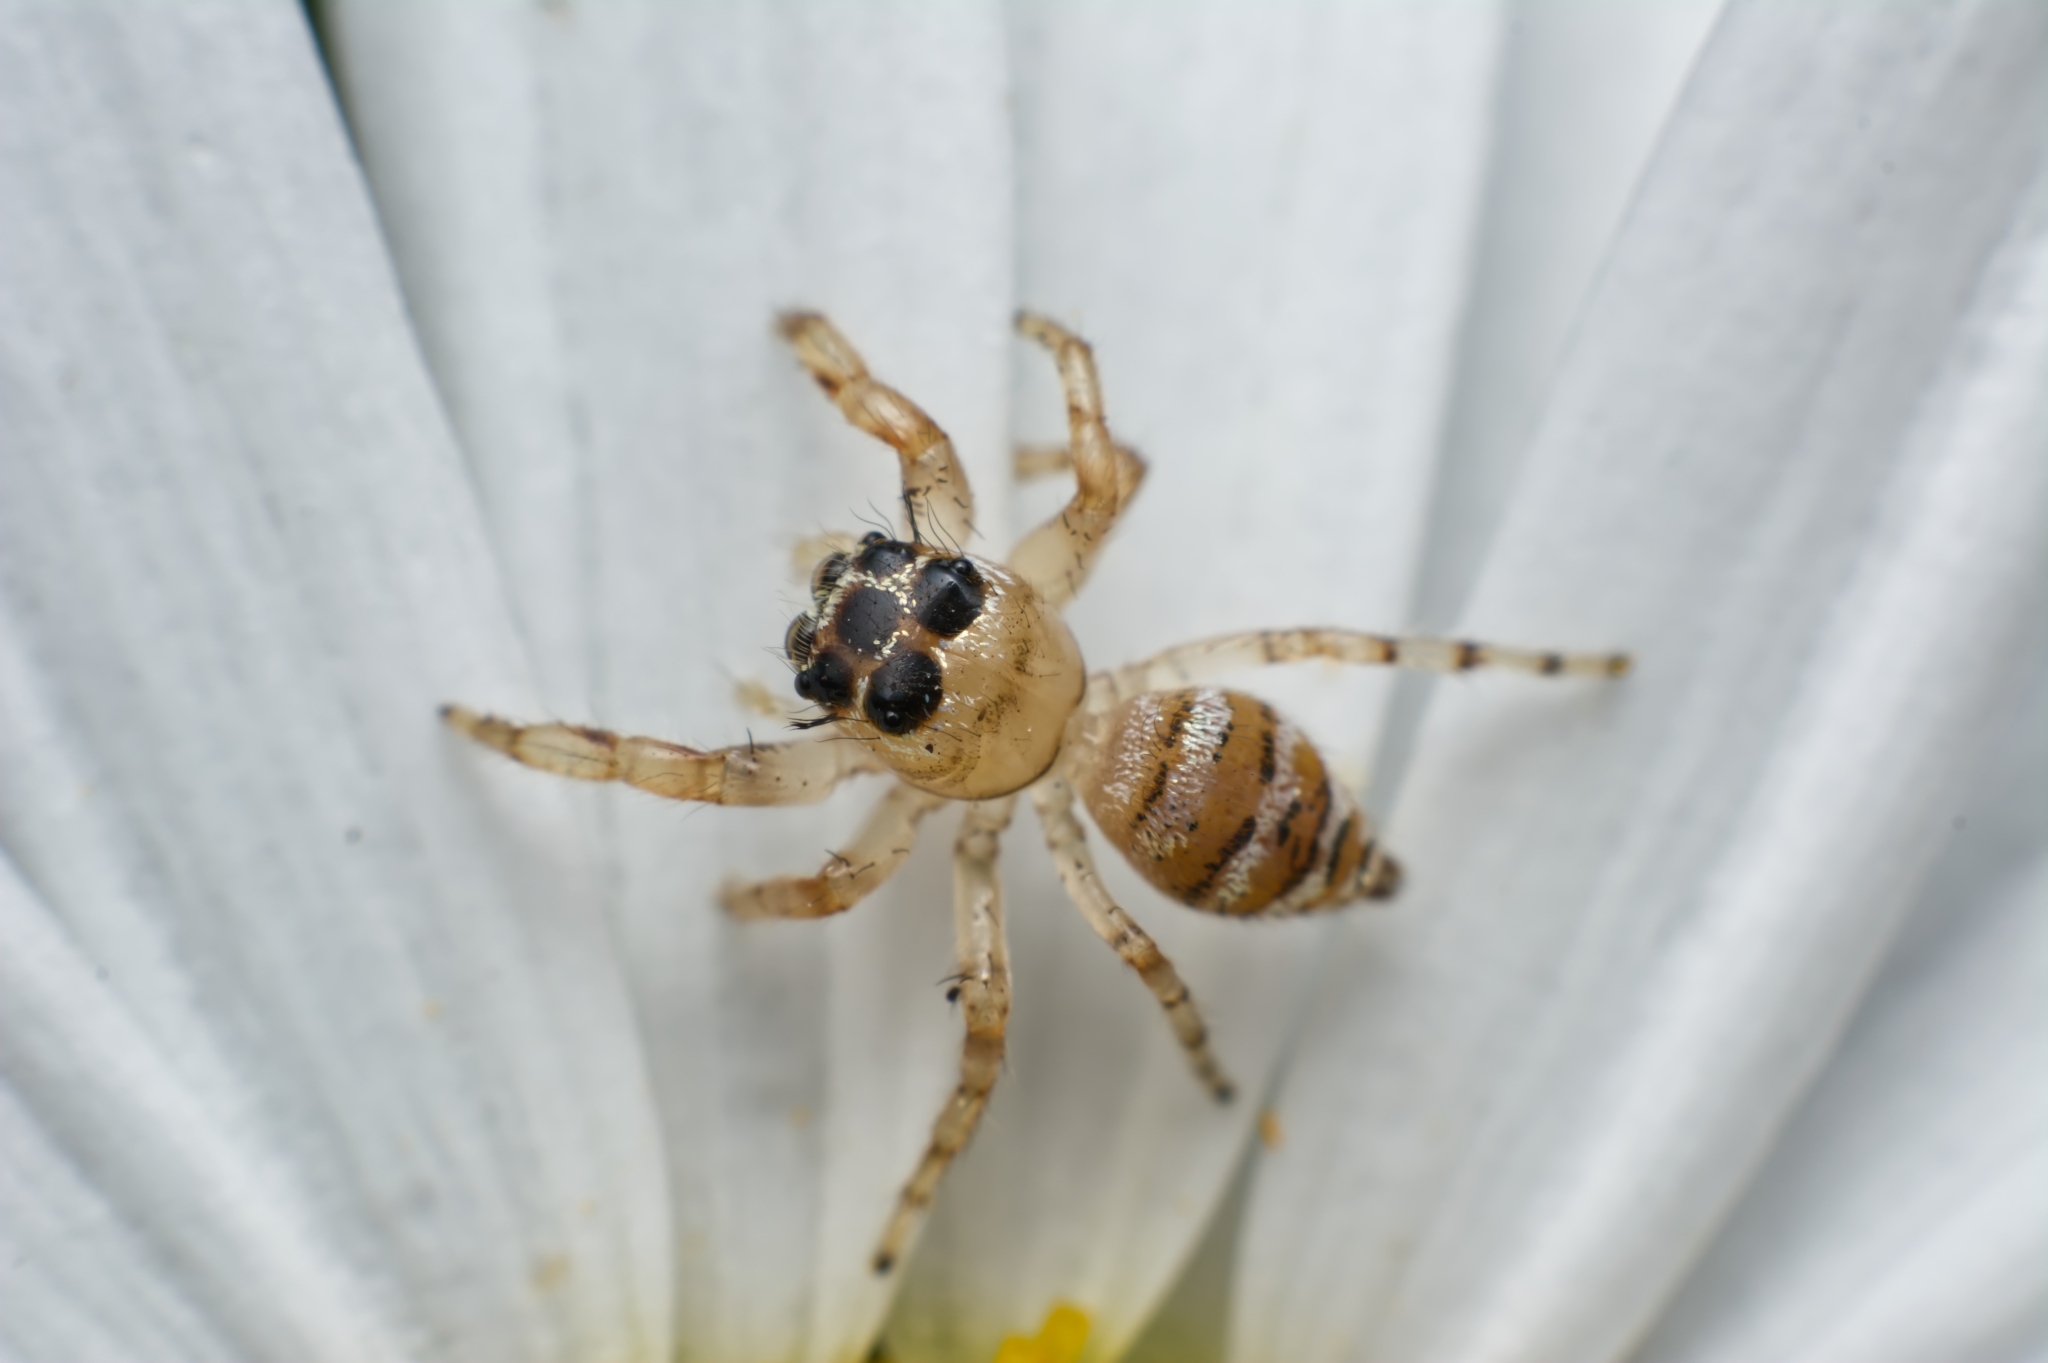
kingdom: Animalia
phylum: Arthropoda
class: Arachnida
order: Araneae
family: Salticidae
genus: Thyene
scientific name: Thyene natalii
